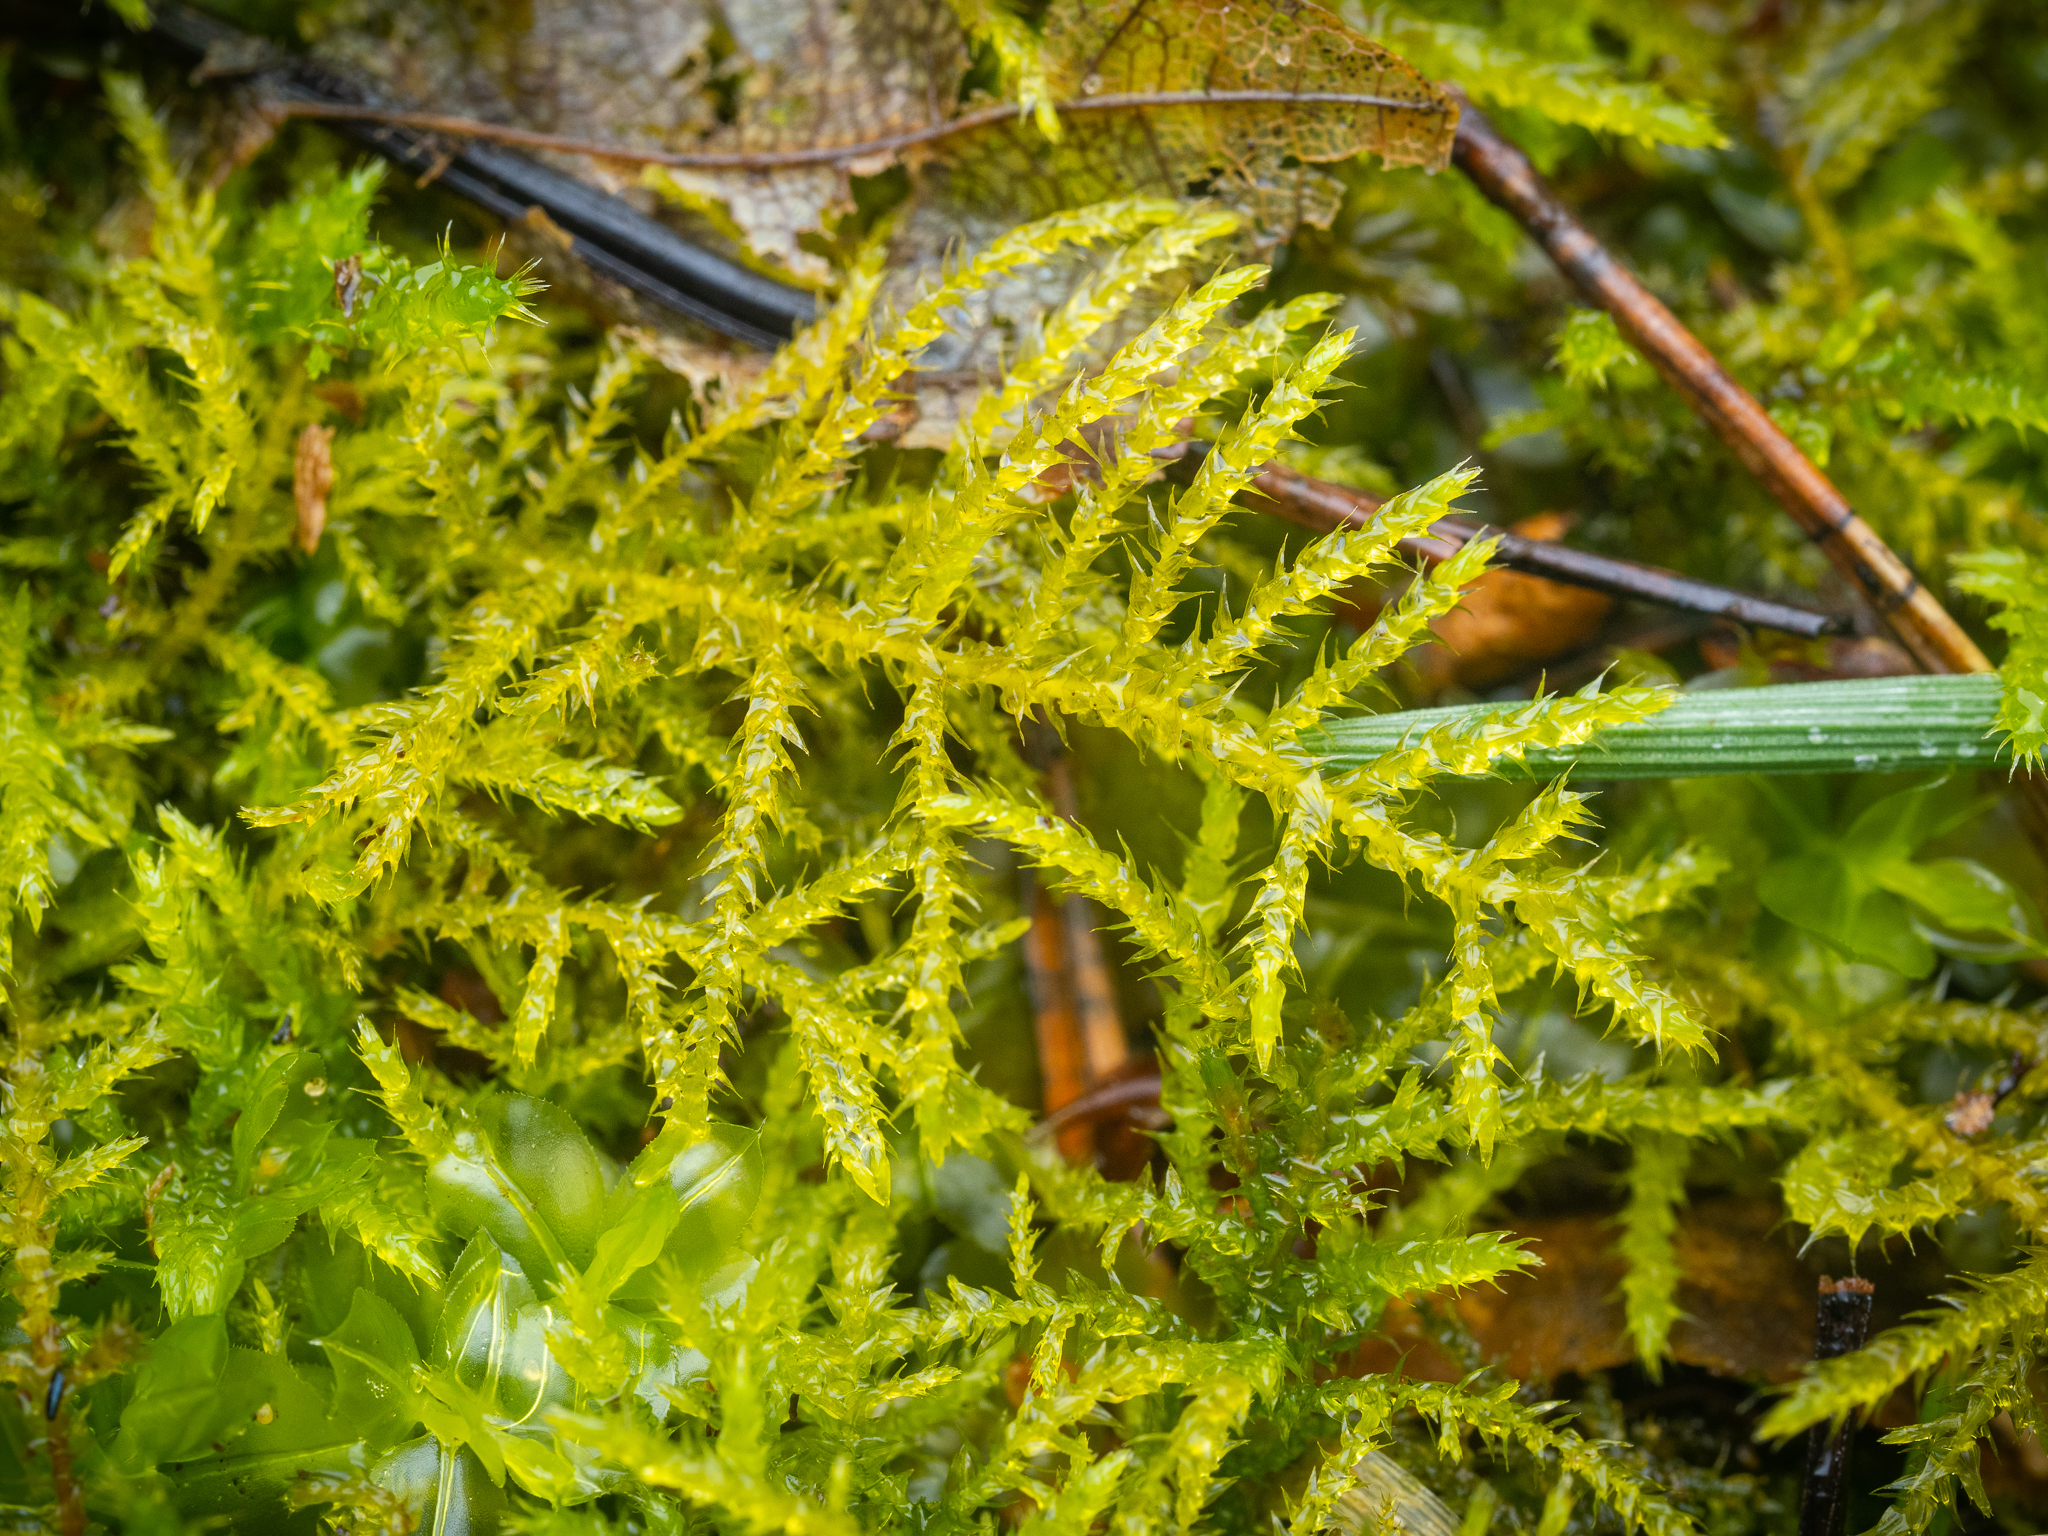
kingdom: Plantae
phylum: Bryophyta
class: Bryopsida
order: Hypnales
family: Brachytheciaceae
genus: Kindbergia
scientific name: Kindbergia praelonga
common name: Slender beaked moss
